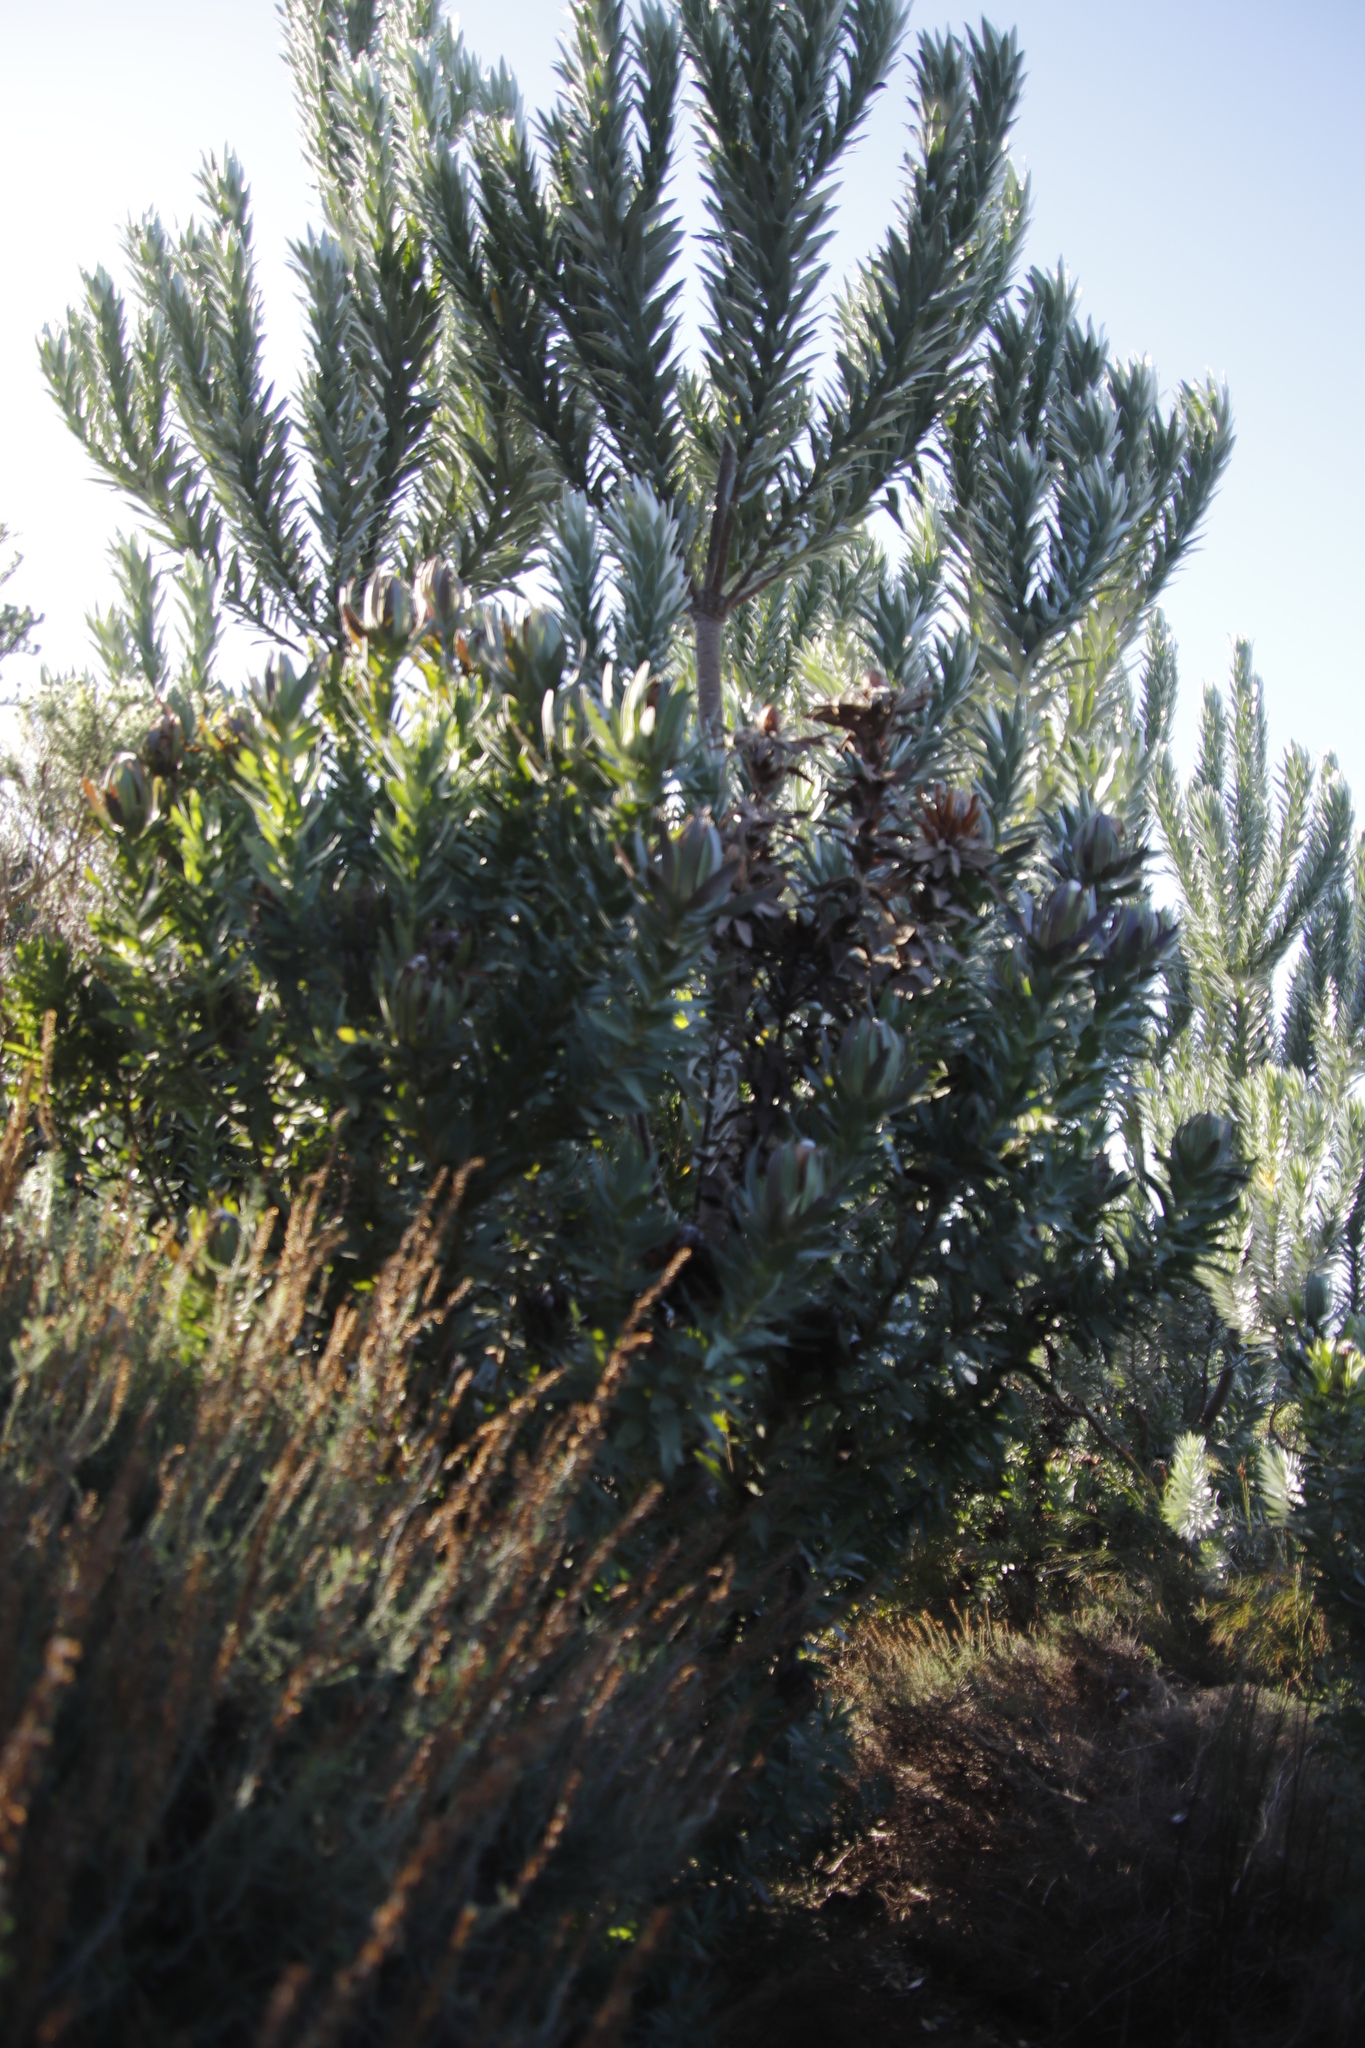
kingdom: Plantae
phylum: Tracheophyta
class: Magnoliopsida
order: Proteales
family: Proteaceae
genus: Leucadendron
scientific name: Leucadendron argenteum
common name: Cape silver tree
